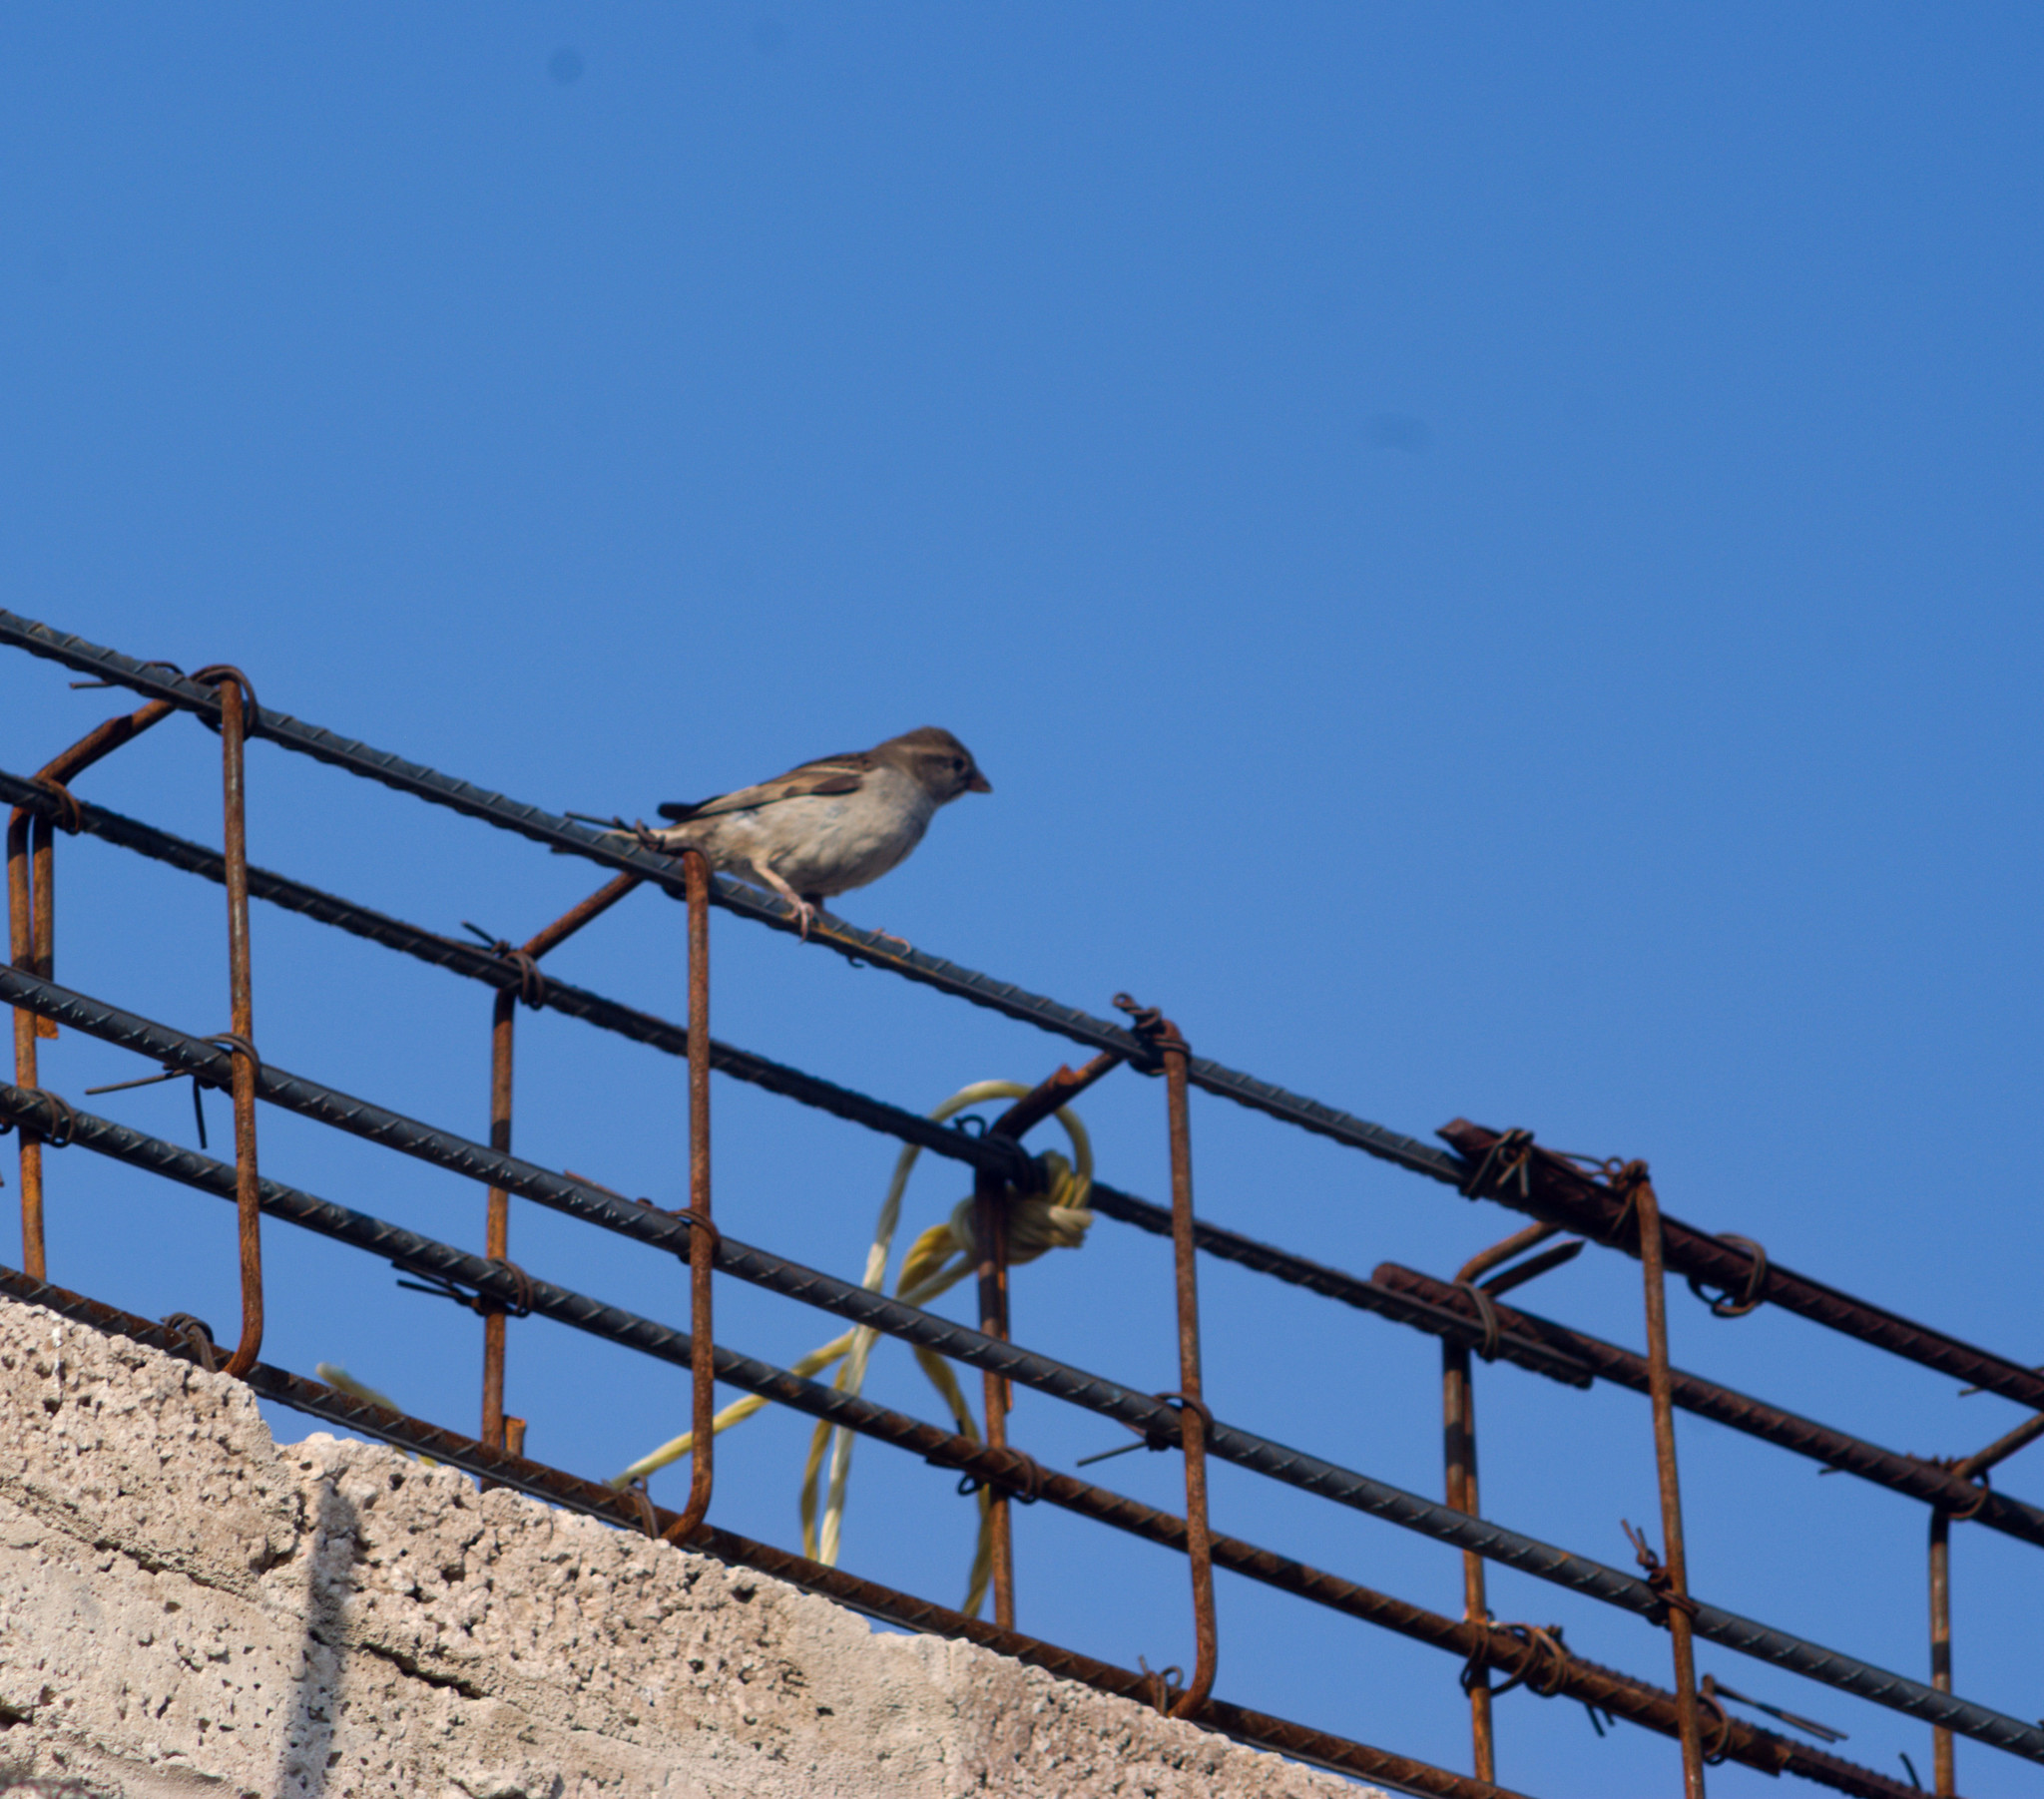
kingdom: Animalia
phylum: Chordata
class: Aves
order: Passeriformes
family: Passeridae
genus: Passer
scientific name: Passer domesticus
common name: House sparrow
